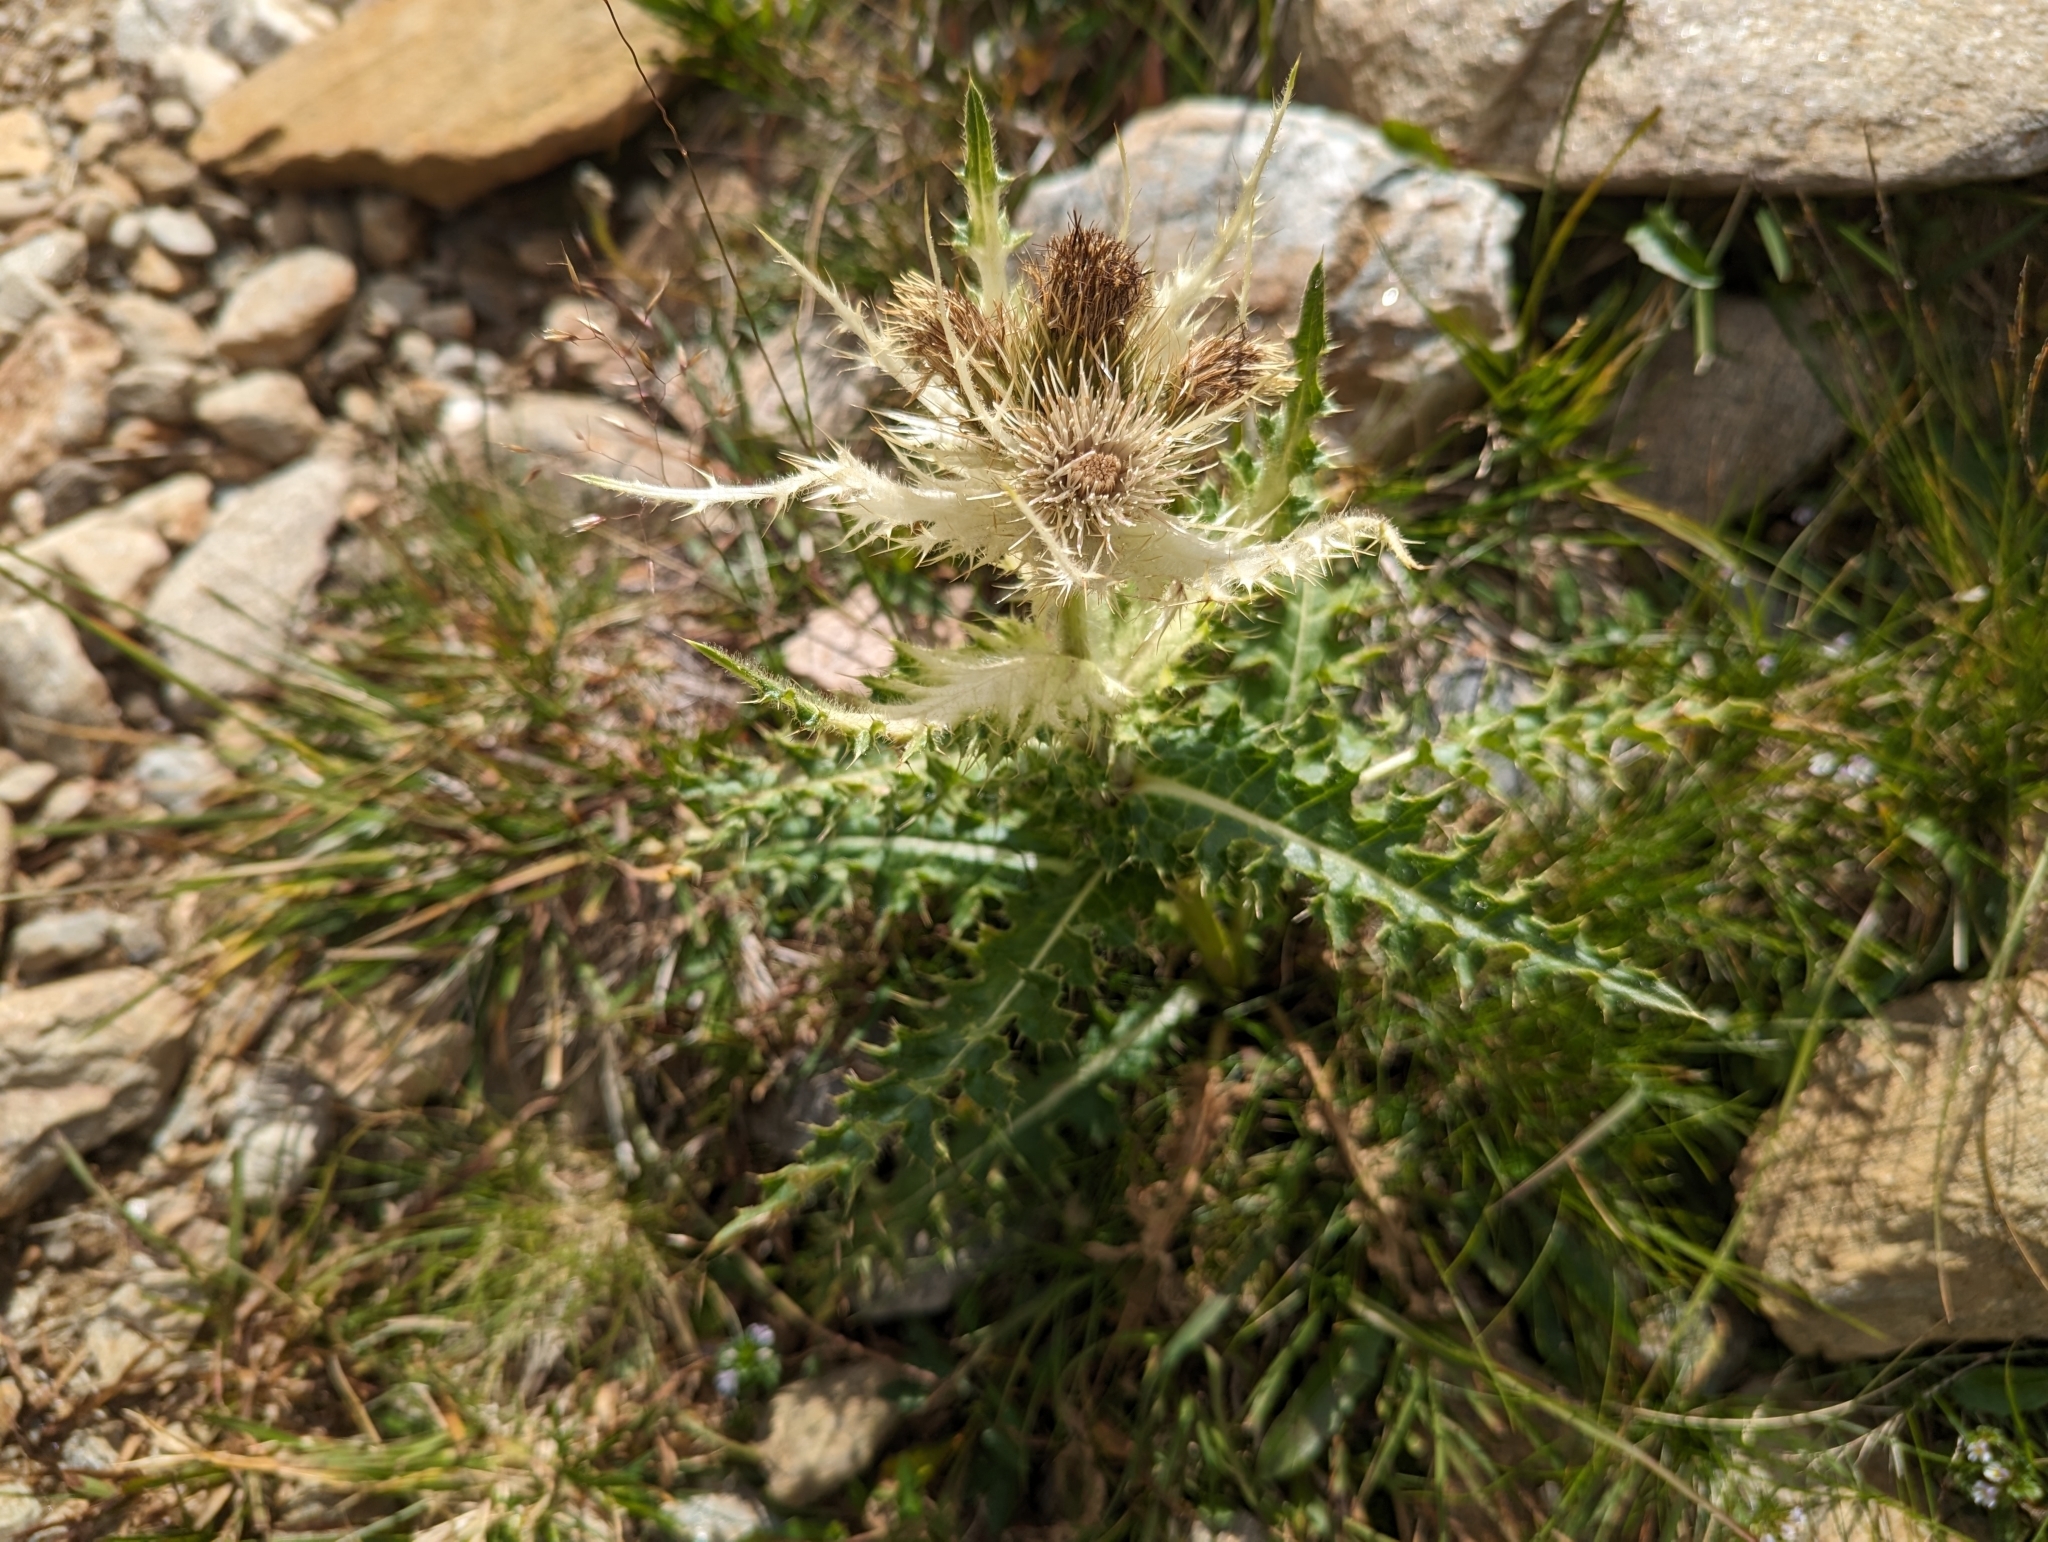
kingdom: Plantae
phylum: Tracheophyta
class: Magnoliopsida
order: Asterales
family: Asteraceae
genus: Cirsium
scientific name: Cirsium spinosissimum
